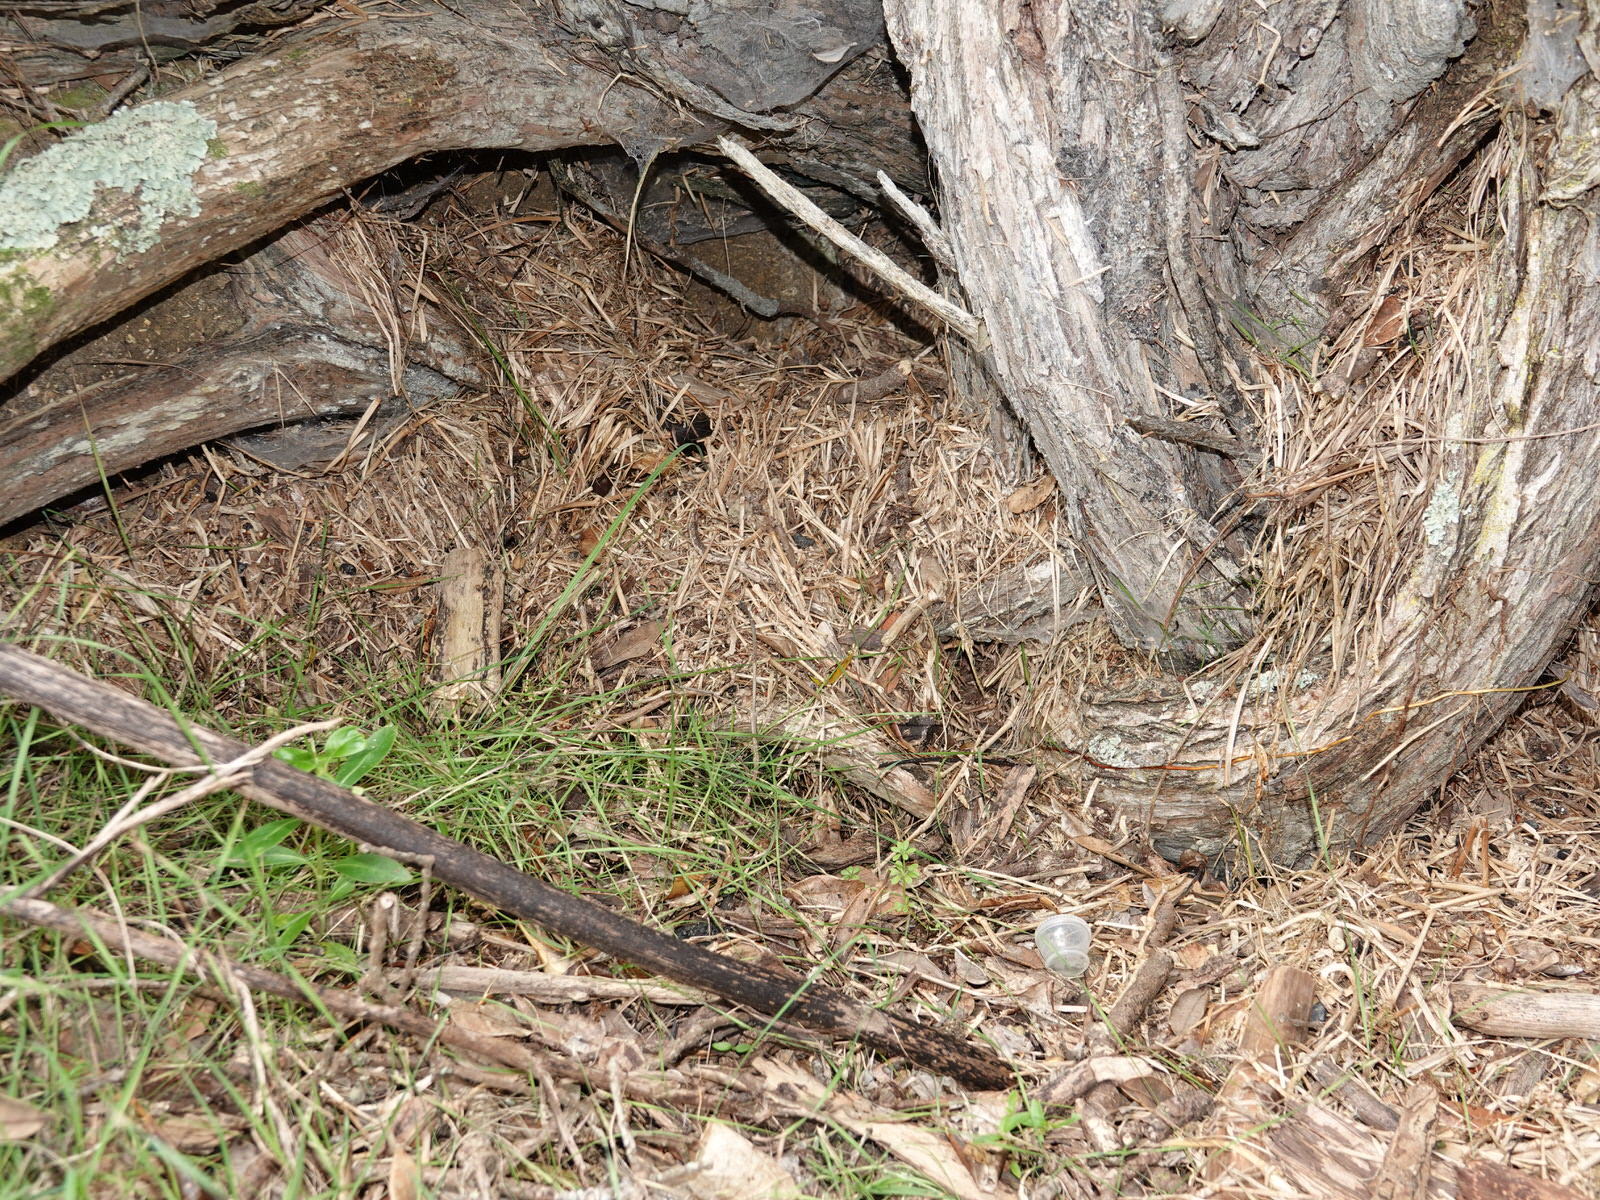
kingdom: Animalia
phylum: Chordata
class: Aves
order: Sphenisciformes
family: Spheniscidae
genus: Eudyptula
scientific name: Eudyptula minor
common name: Little penguin
